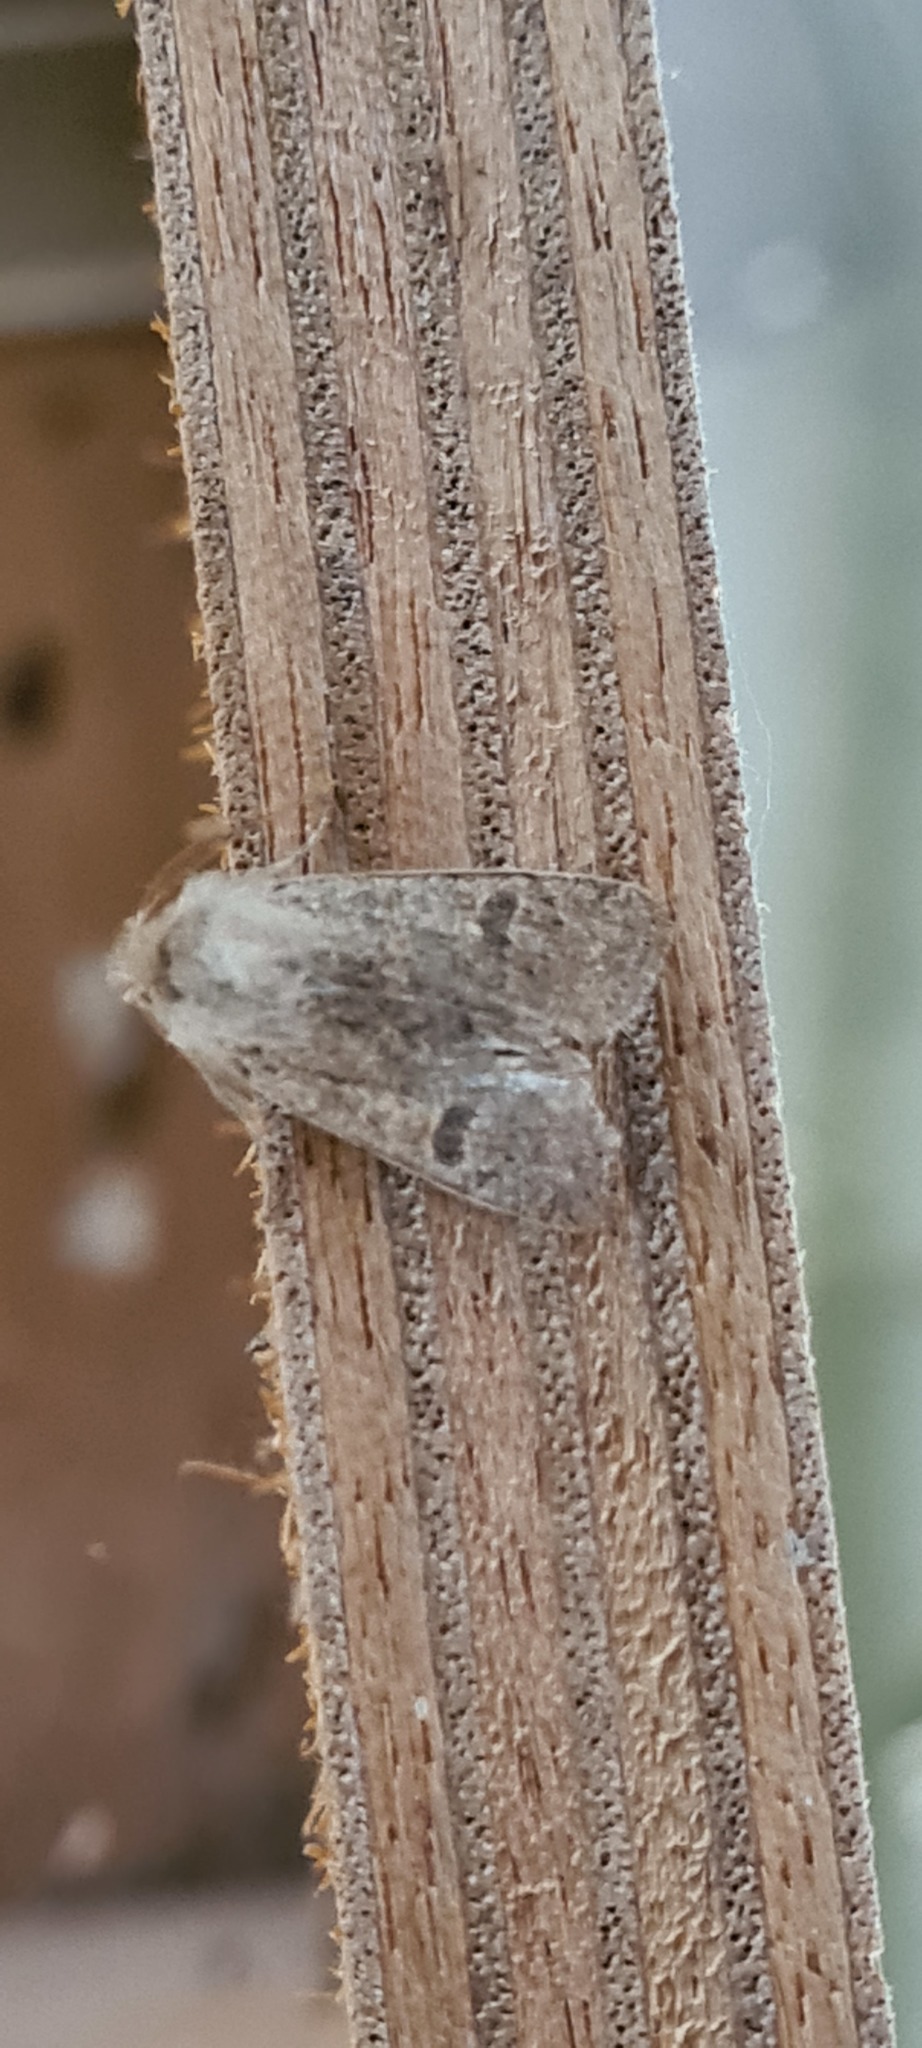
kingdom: Animalia
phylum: Arthropoda
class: Insecta
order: Lepidoptera
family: Noctuidae
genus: Orthosia
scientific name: Orthosia cruda
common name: Small quaker
